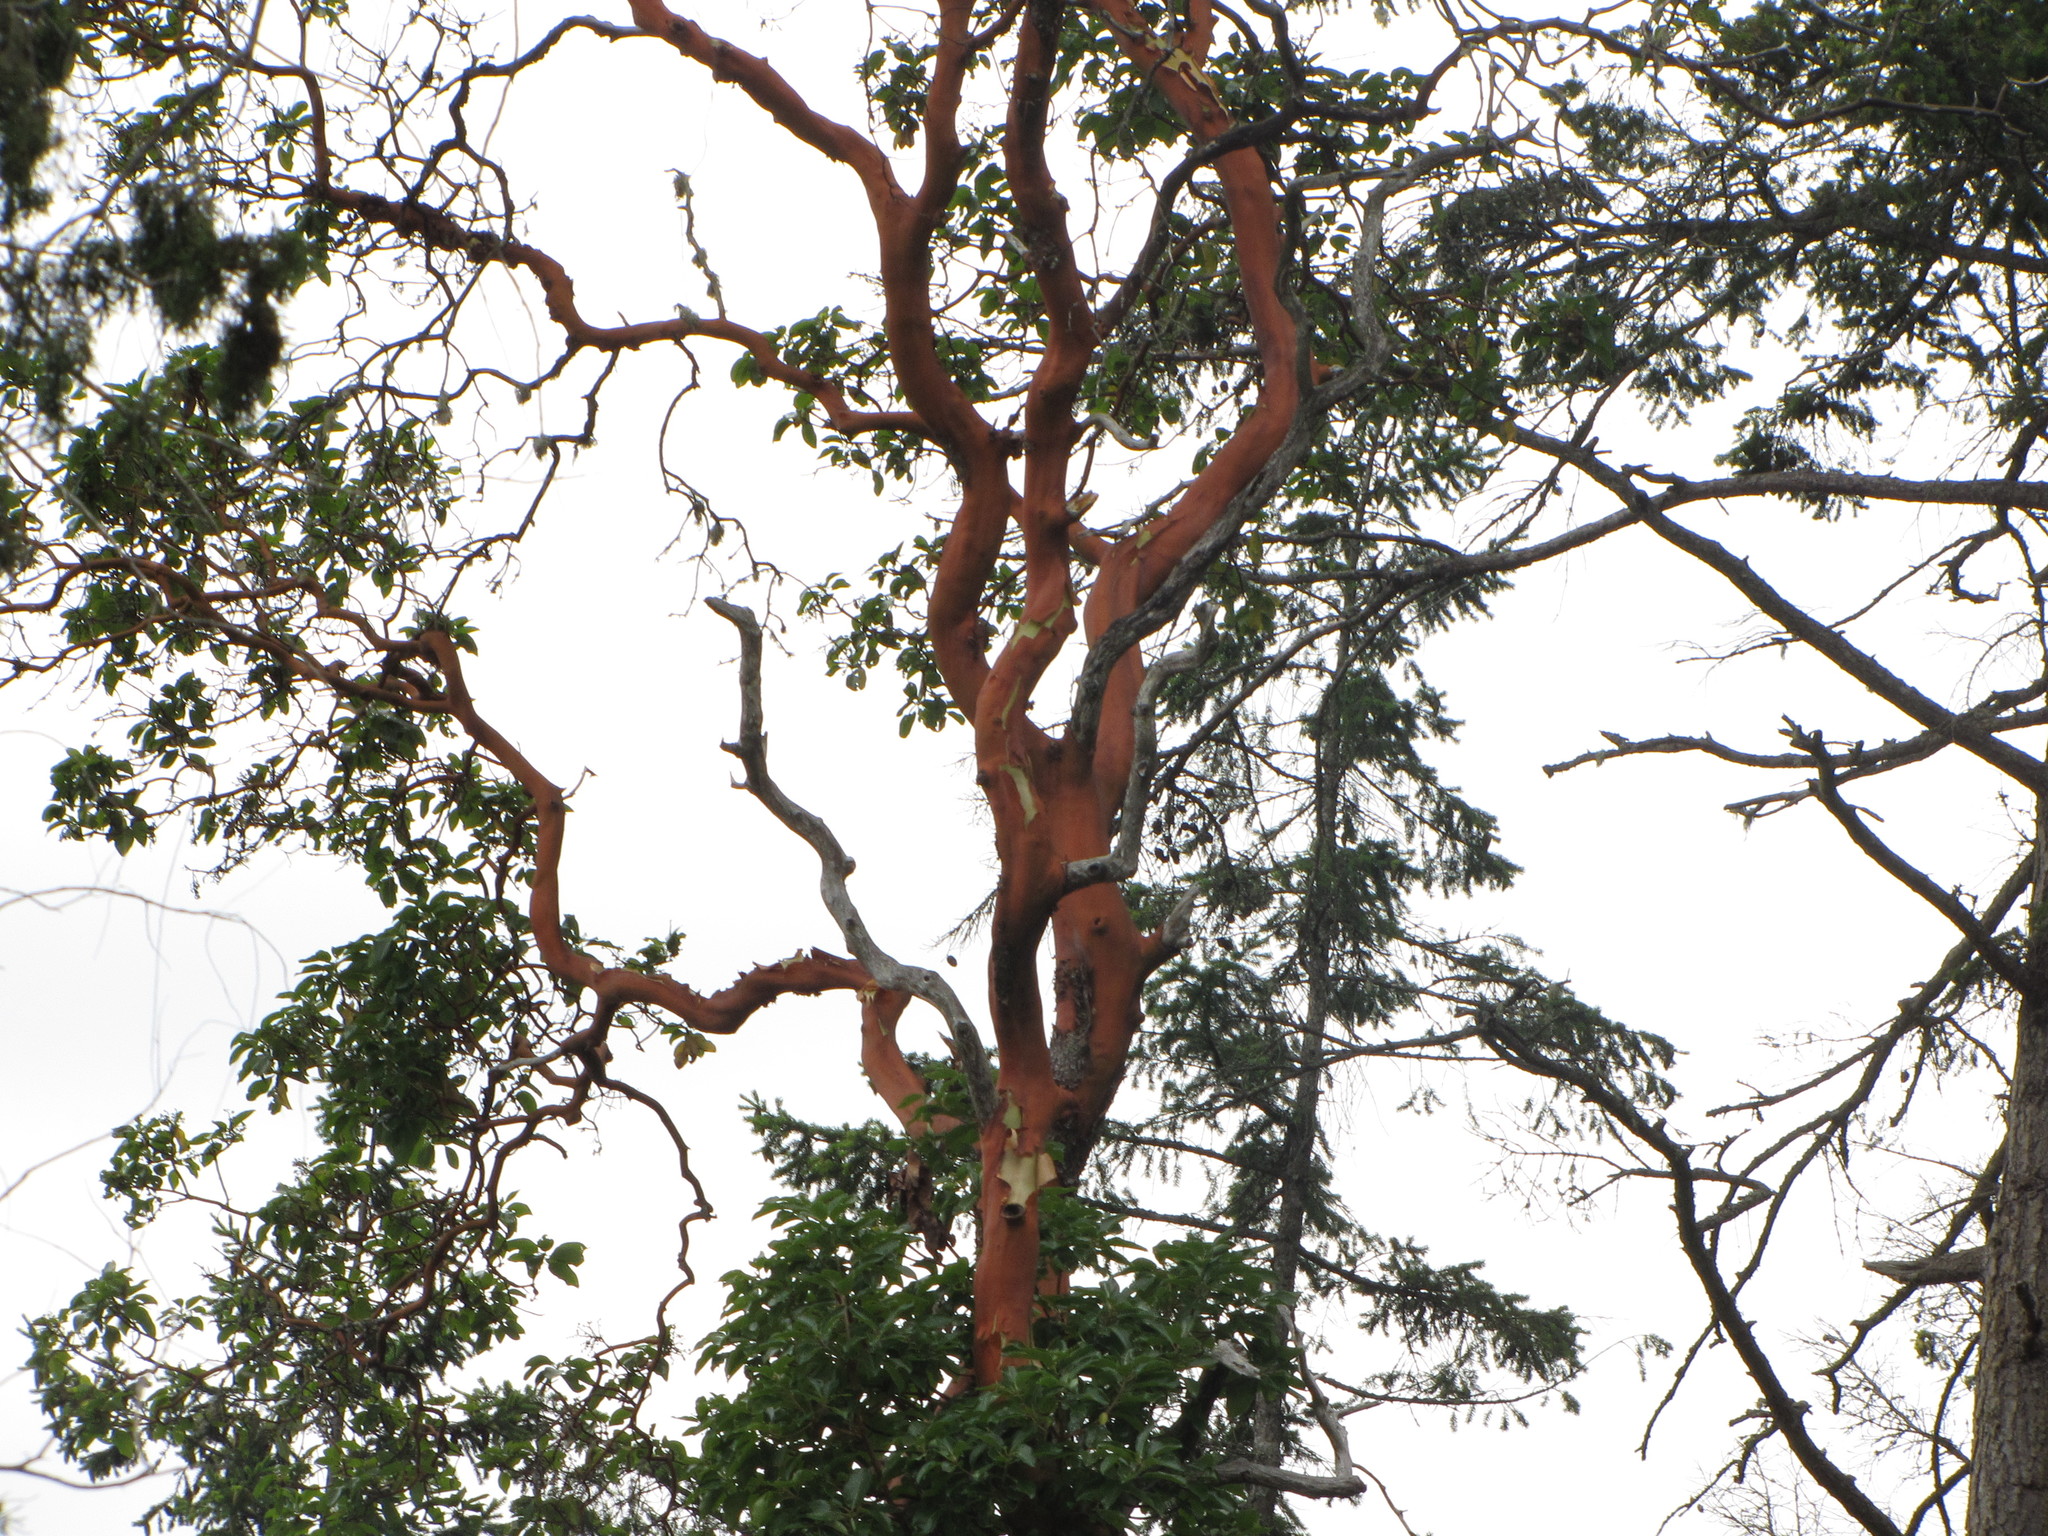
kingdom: Plantae
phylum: Tracheophyta
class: Magnoliopsida
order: Ericales
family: Ericaceae
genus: Arbutus
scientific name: Arbutus menziesii
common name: Pacific madrone
